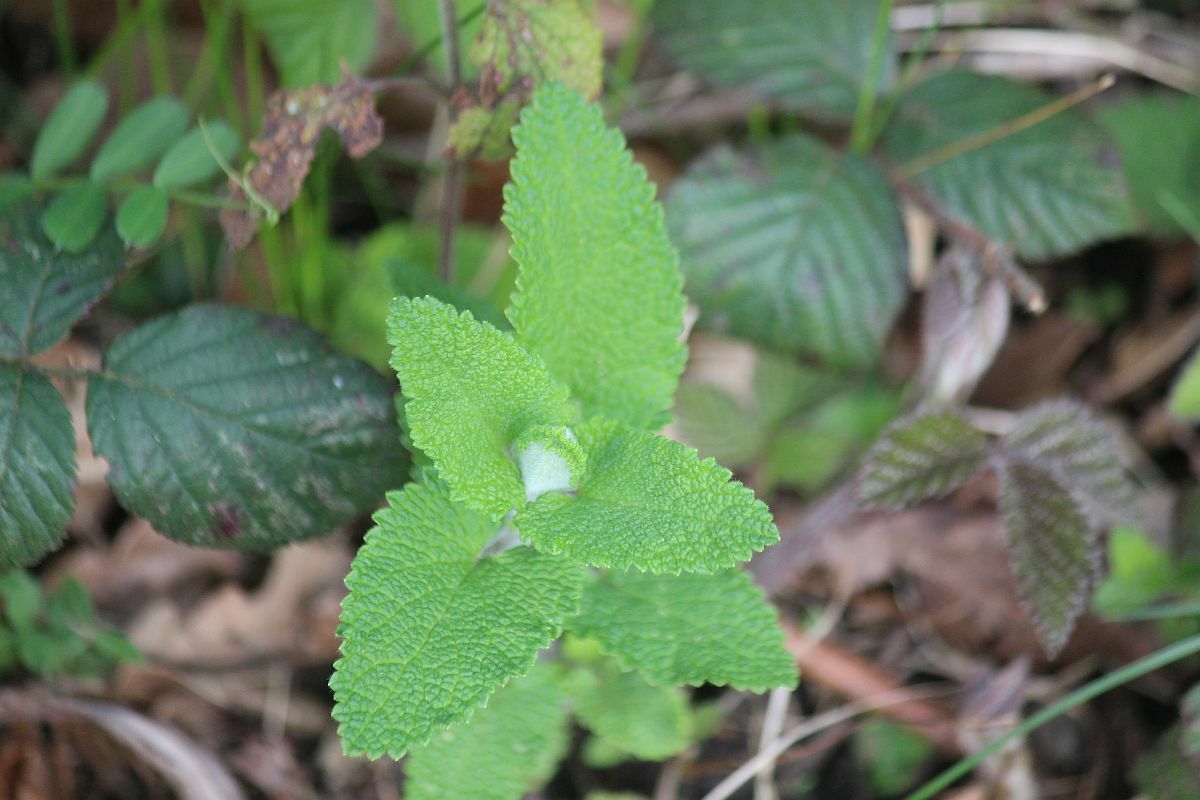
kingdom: Plantae
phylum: Tracheophyta
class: Magnoliopsida
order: Lamiales
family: Lamiaceae
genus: Teucrium
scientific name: Teucrium scorodonia
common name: Woodland germander
